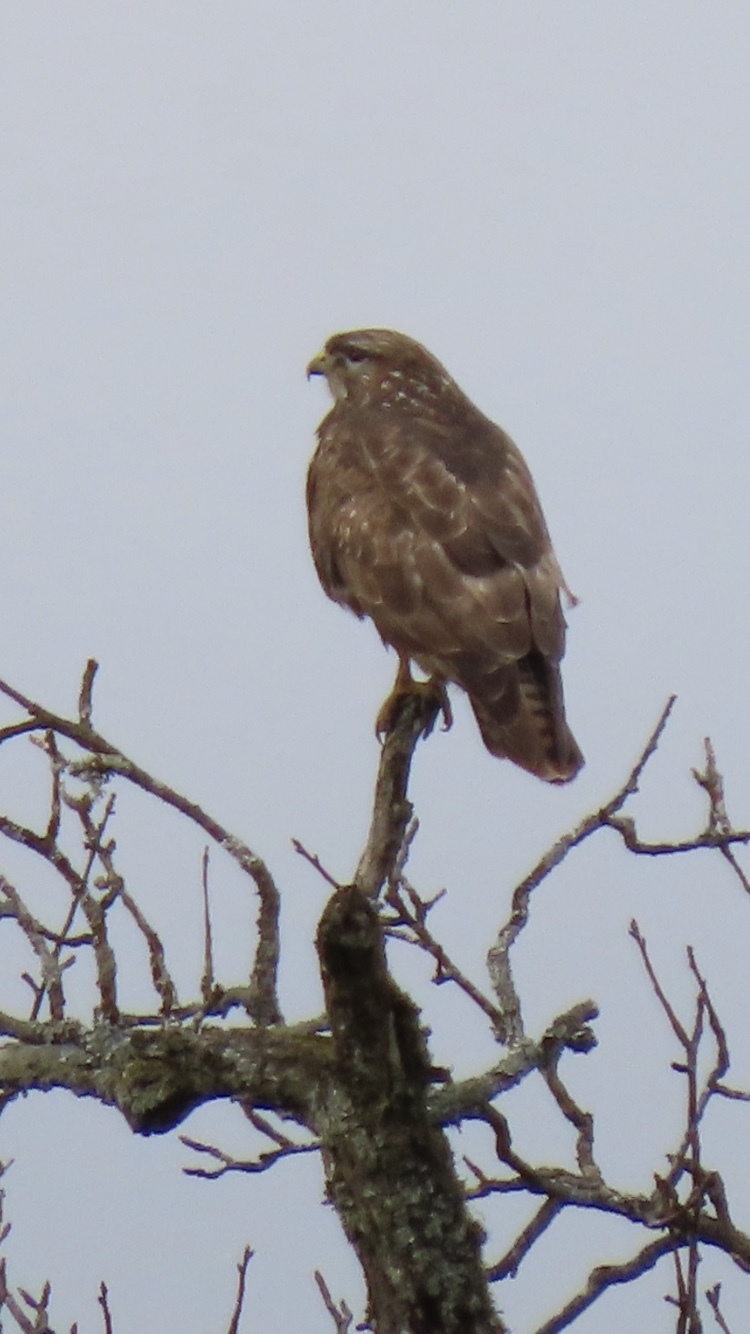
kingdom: Animalia
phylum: Chordata
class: Aves
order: Accipitriformes
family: Accipitridae
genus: Buteo
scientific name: Buteo buteo
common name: Common buzzard
